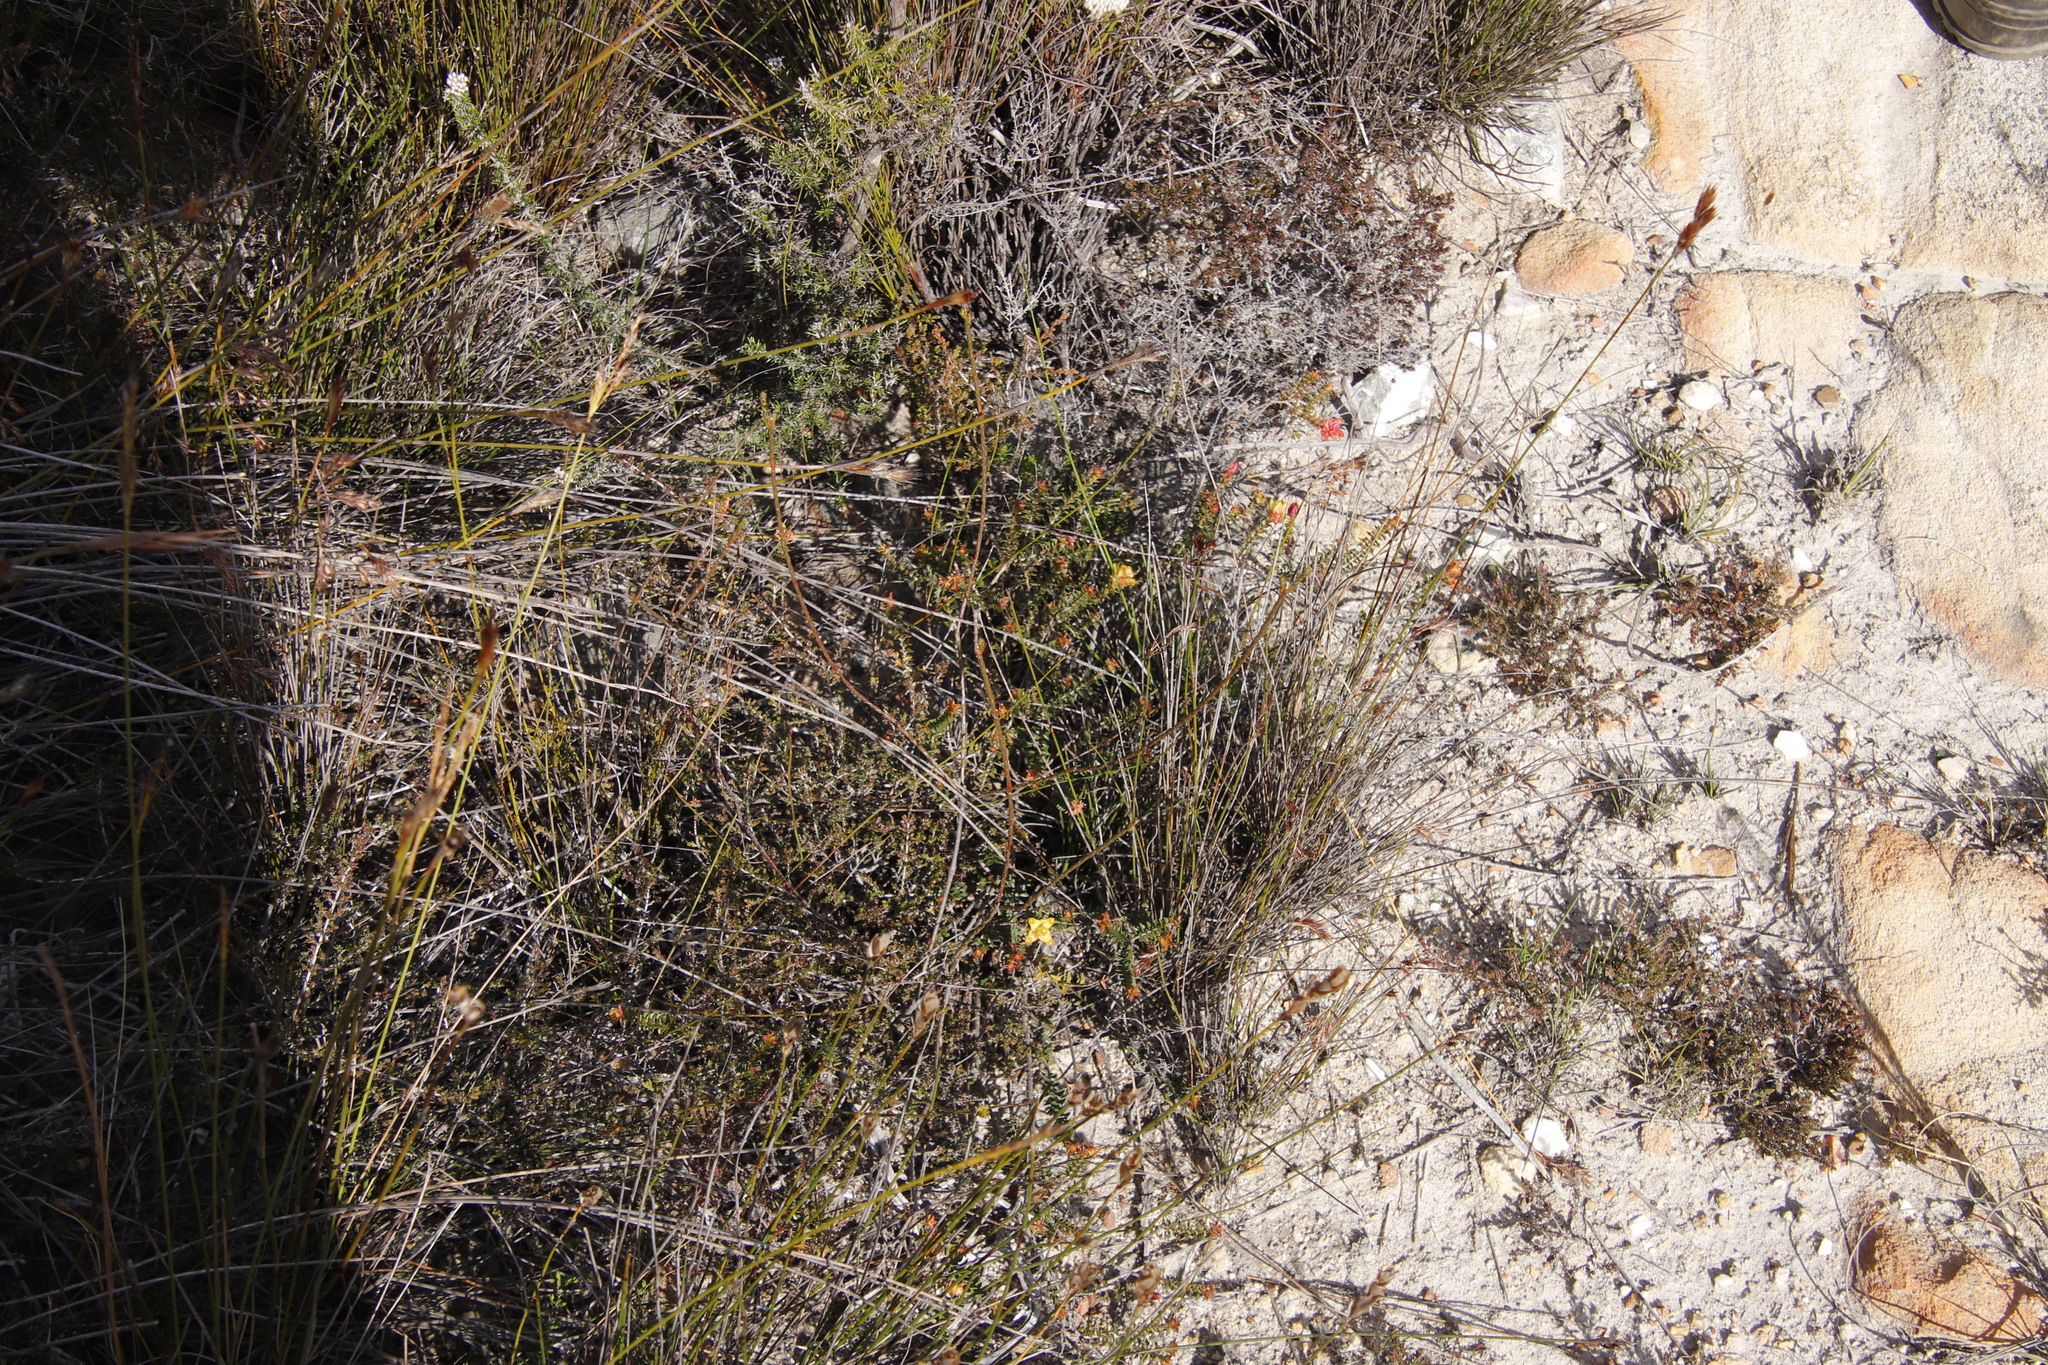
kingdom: Plantae
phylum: Tracheophyta
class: Magnoliopsida
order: Myrtales
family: Penaeaceae
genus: Penaea
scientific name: Penaea mucronata
